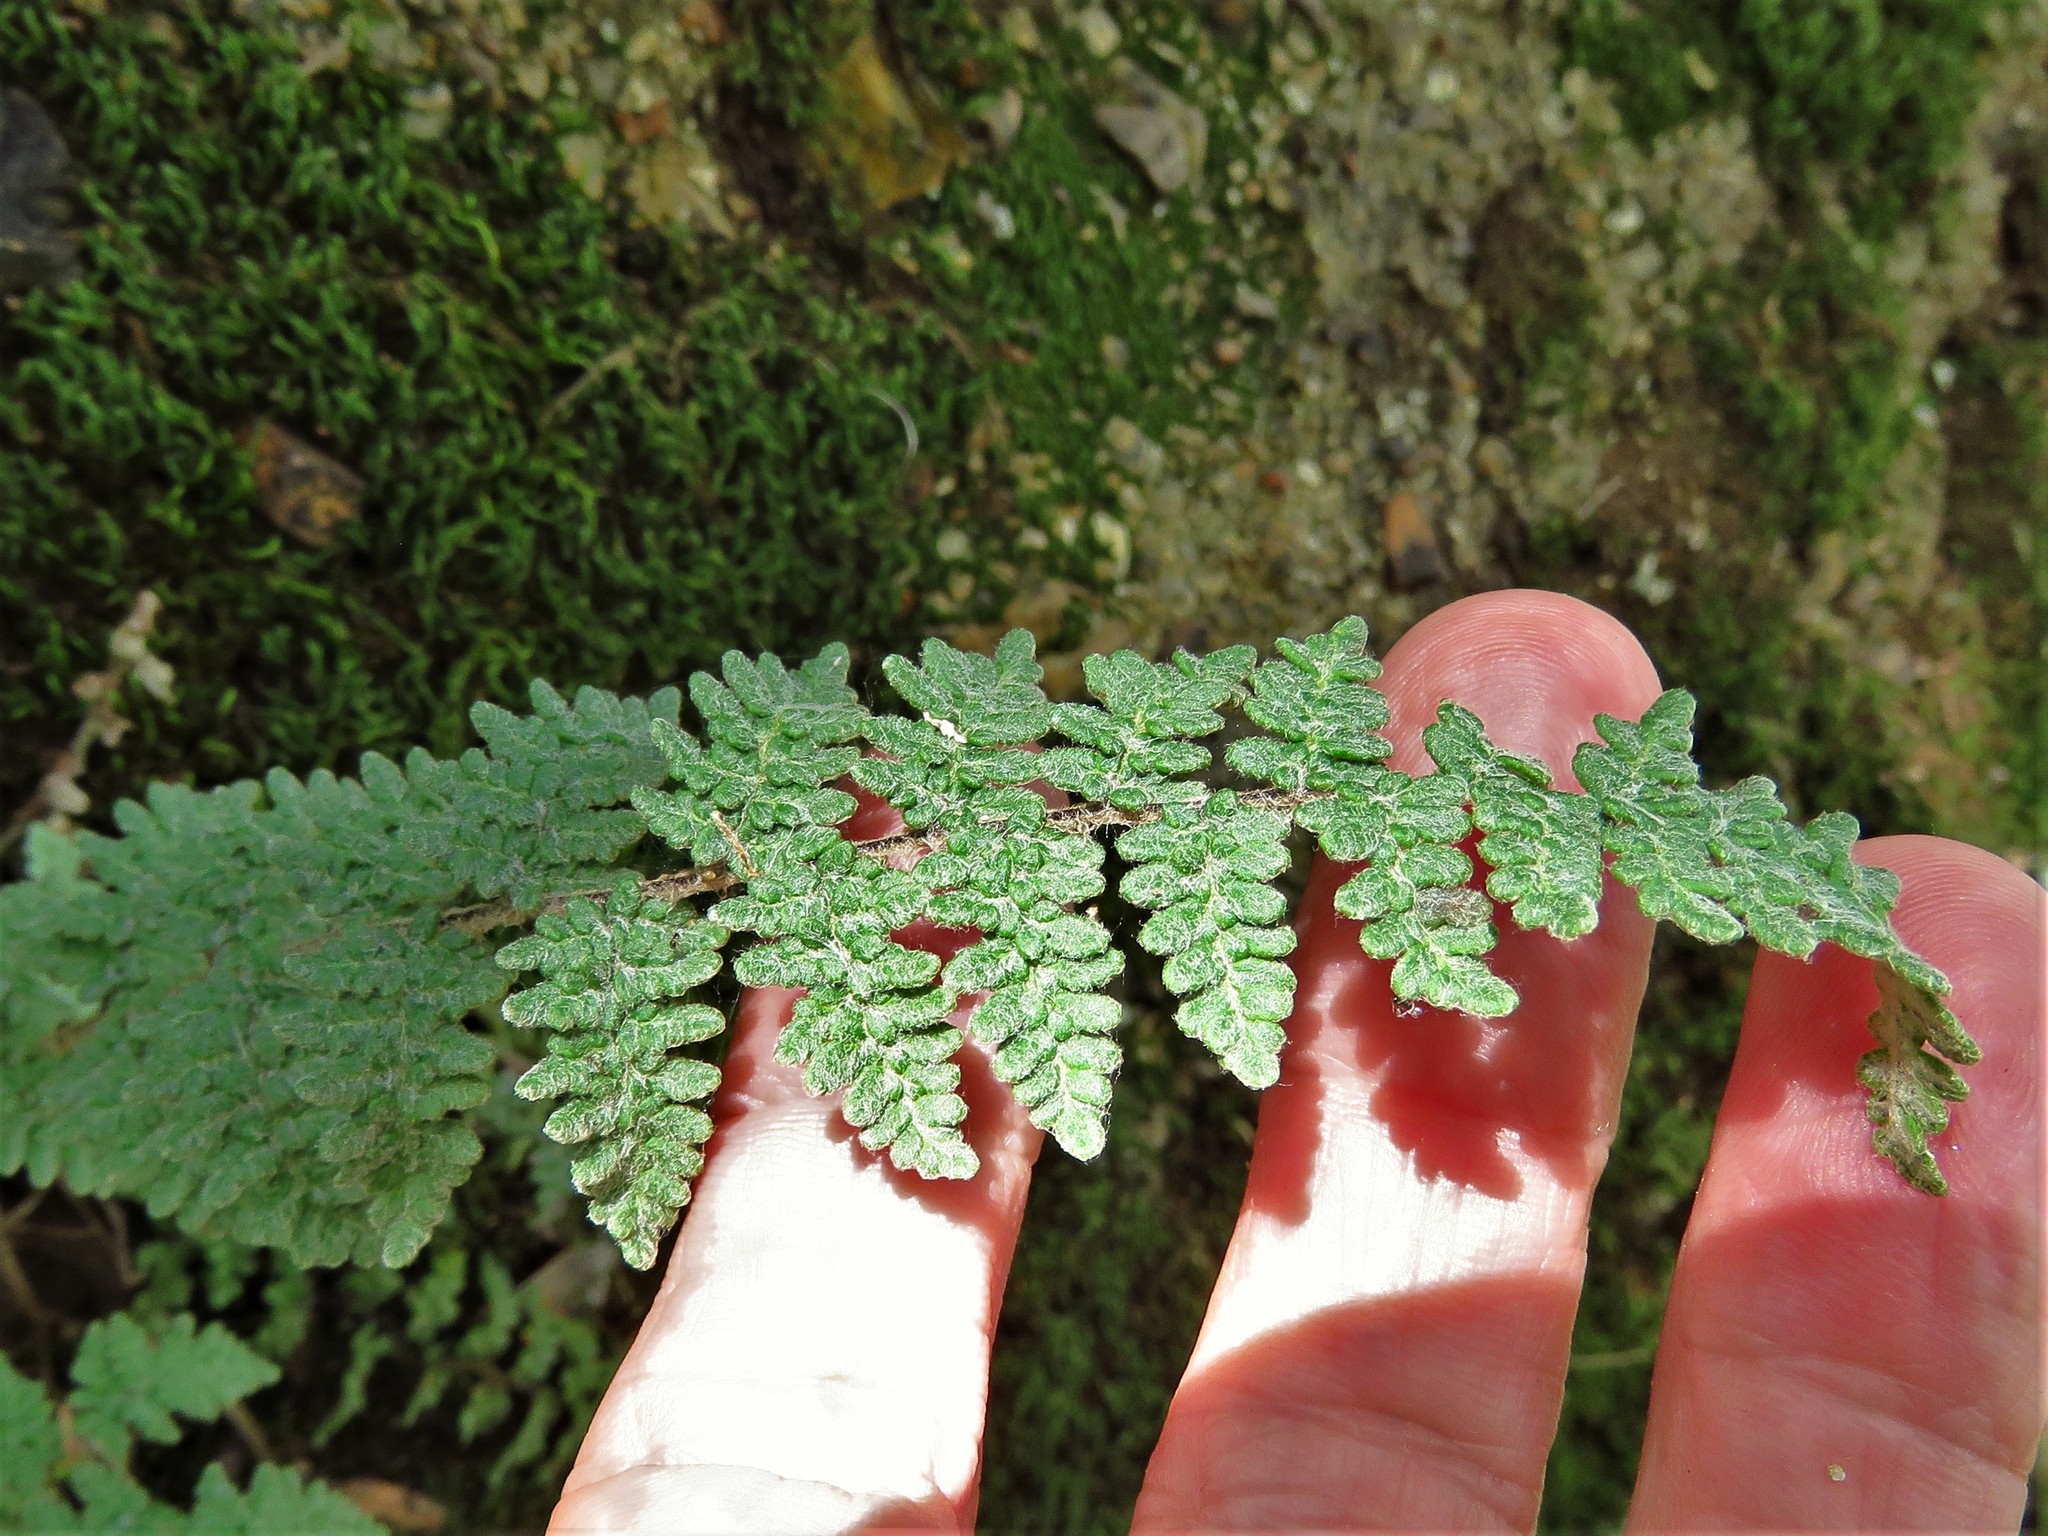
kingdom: Plantae
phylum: Tracheophyta
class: Polypodiopsida
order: Polypodiales
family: Pteridaceae
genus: Myriopteris
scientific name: Myriopteris tomentosa
